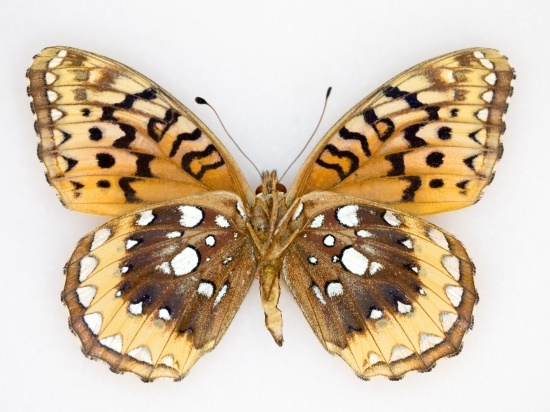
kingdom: Animalia
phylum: Arthropoda
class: Insecta
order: Lepidoptera
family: Nymphalidae
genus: Speyeria
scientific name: Speyeria cybele
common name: Great spangled fritillary
